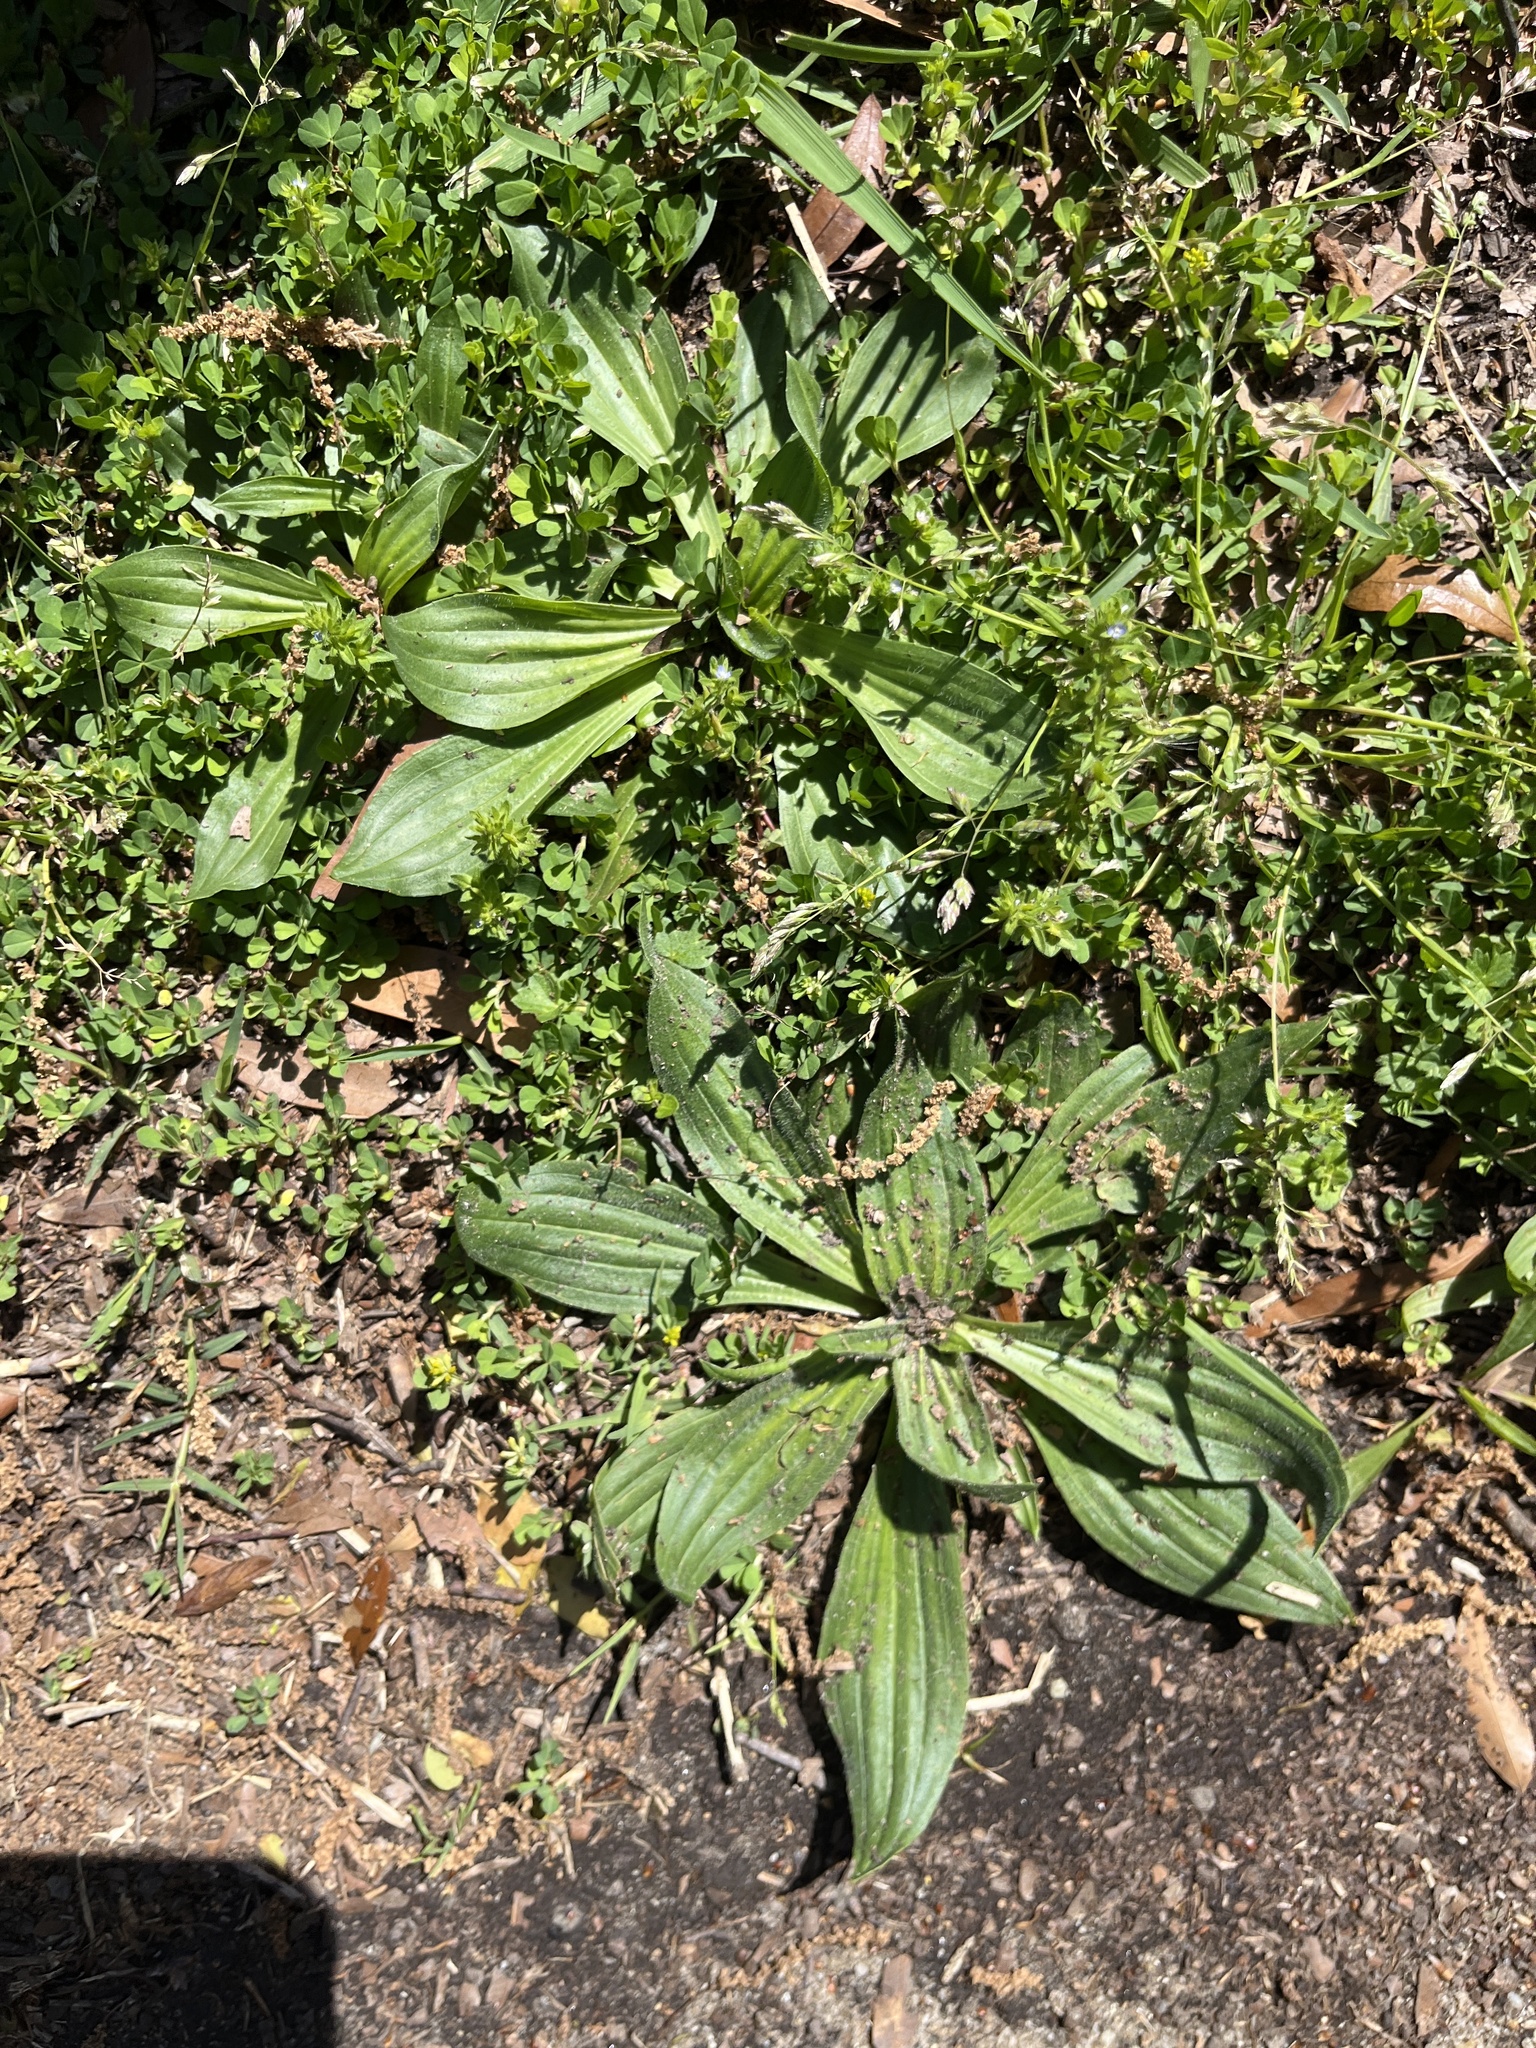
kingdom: Plantae
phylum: Tracheophyta
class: Magnoliopsida
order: Lamiales
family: Plantaginaceae
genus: Plantago
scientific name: Plantago lanceolata
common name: Ribwort plantain
